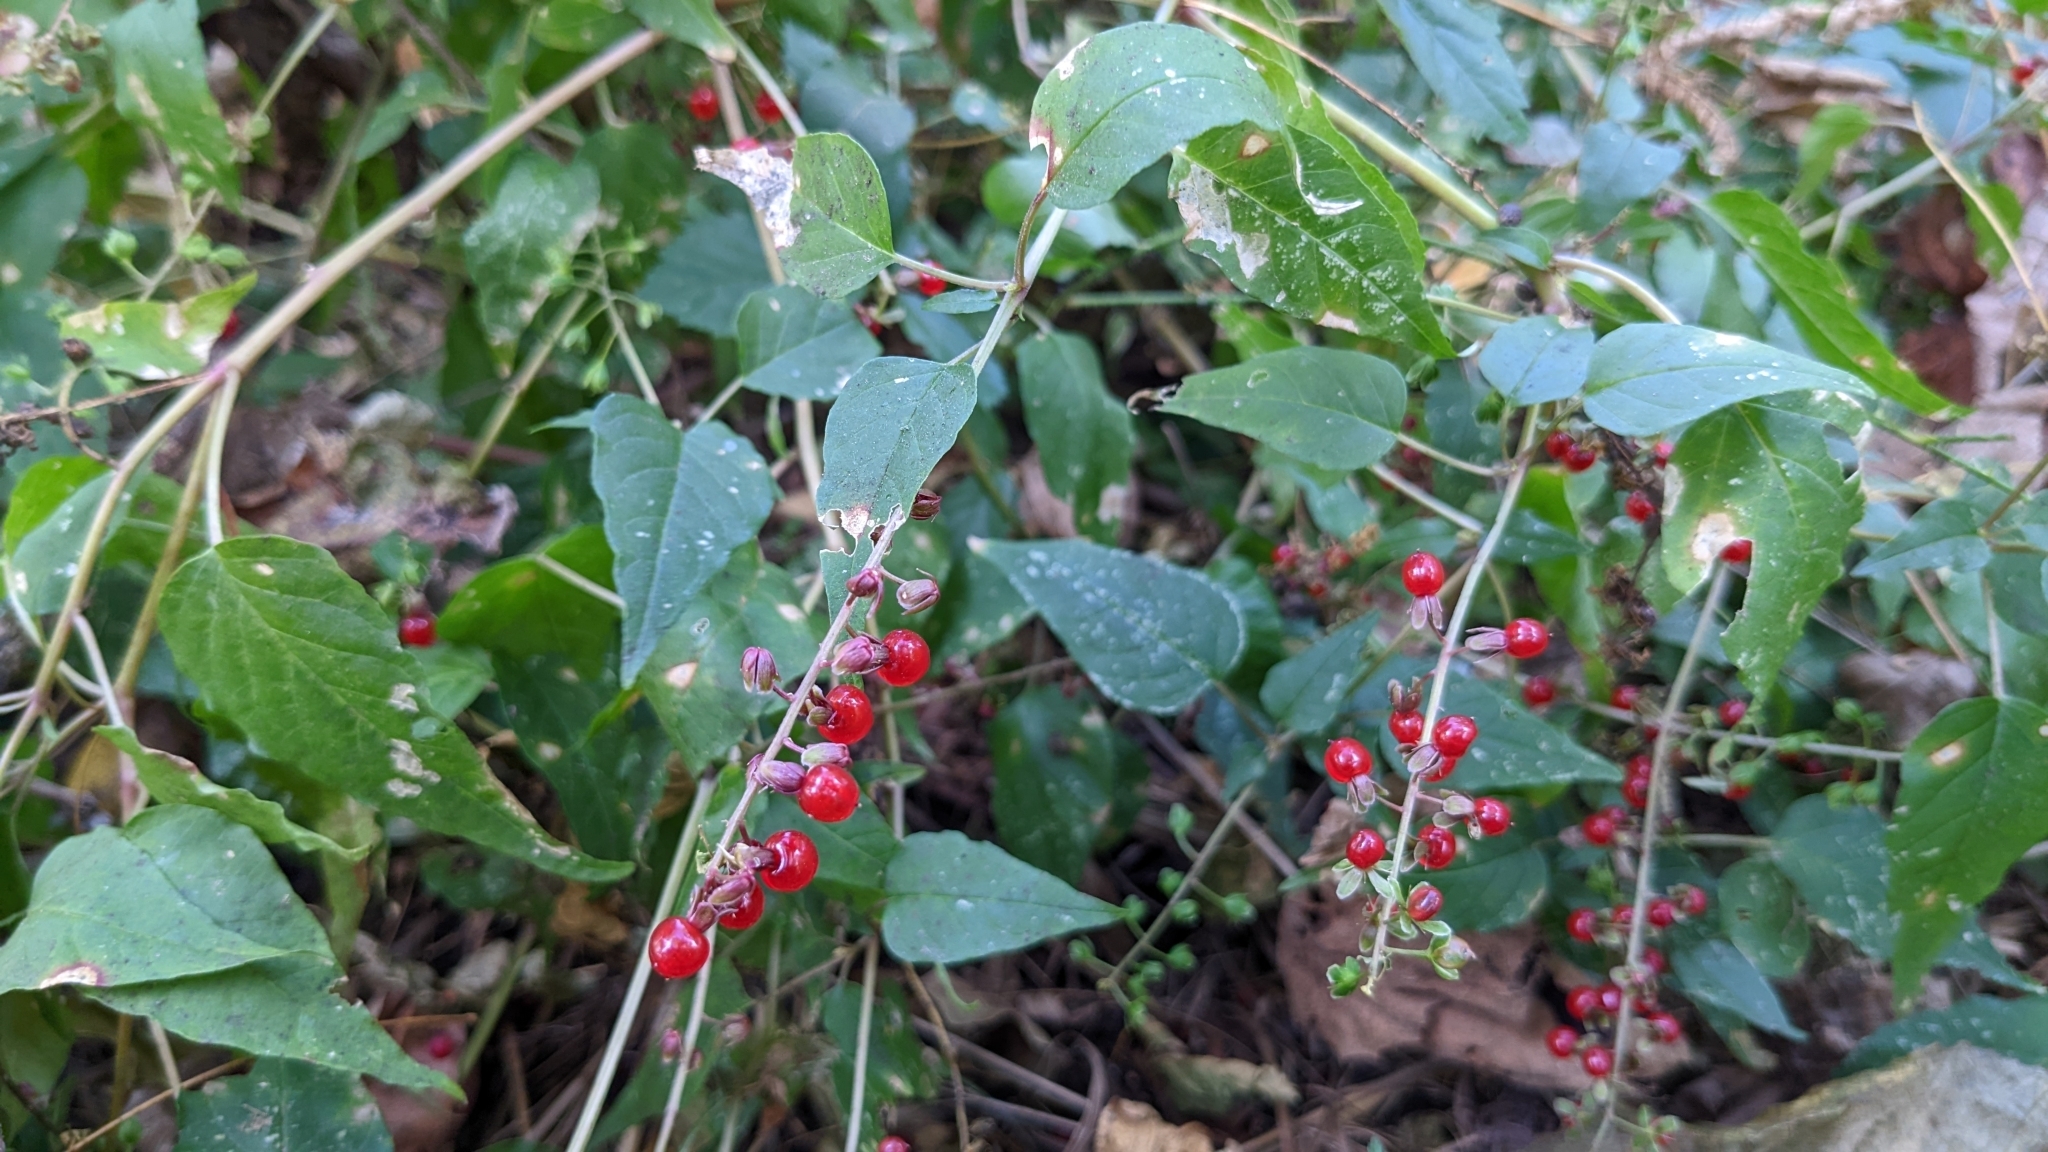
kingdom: Plantae
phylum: Tracheophyta
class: Magnoliopsida
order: Caryophyllales
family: Phytolaccaceae
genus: Rivina
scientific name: Rivina humilis
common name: Rougeplant
